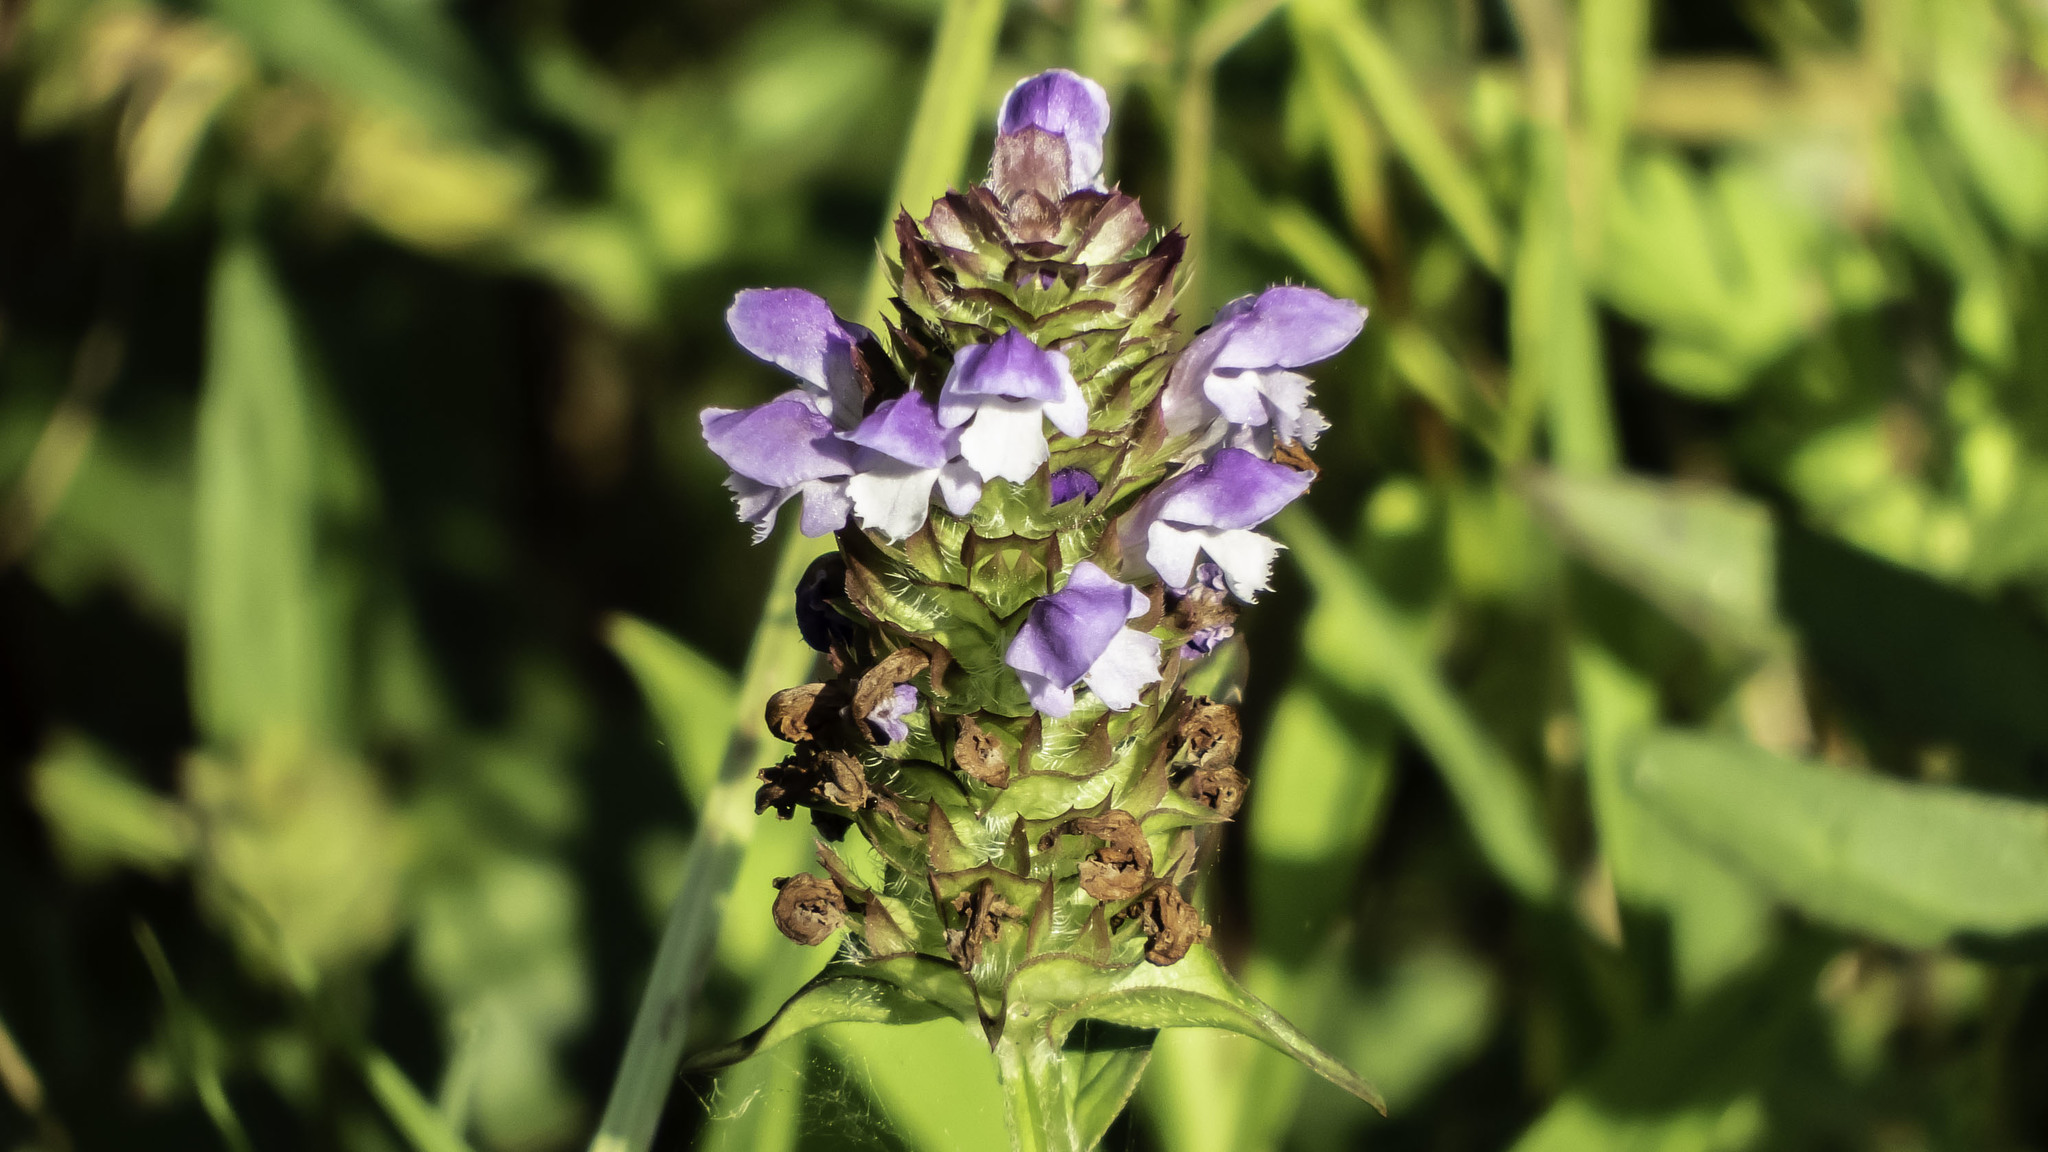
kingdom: Plantae
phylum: Tracheophyta
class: Magnoliopsida
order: Lamiales
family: Lamiaceae
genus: Prunella
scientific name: Prunella vulgaris
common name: Heal-all
